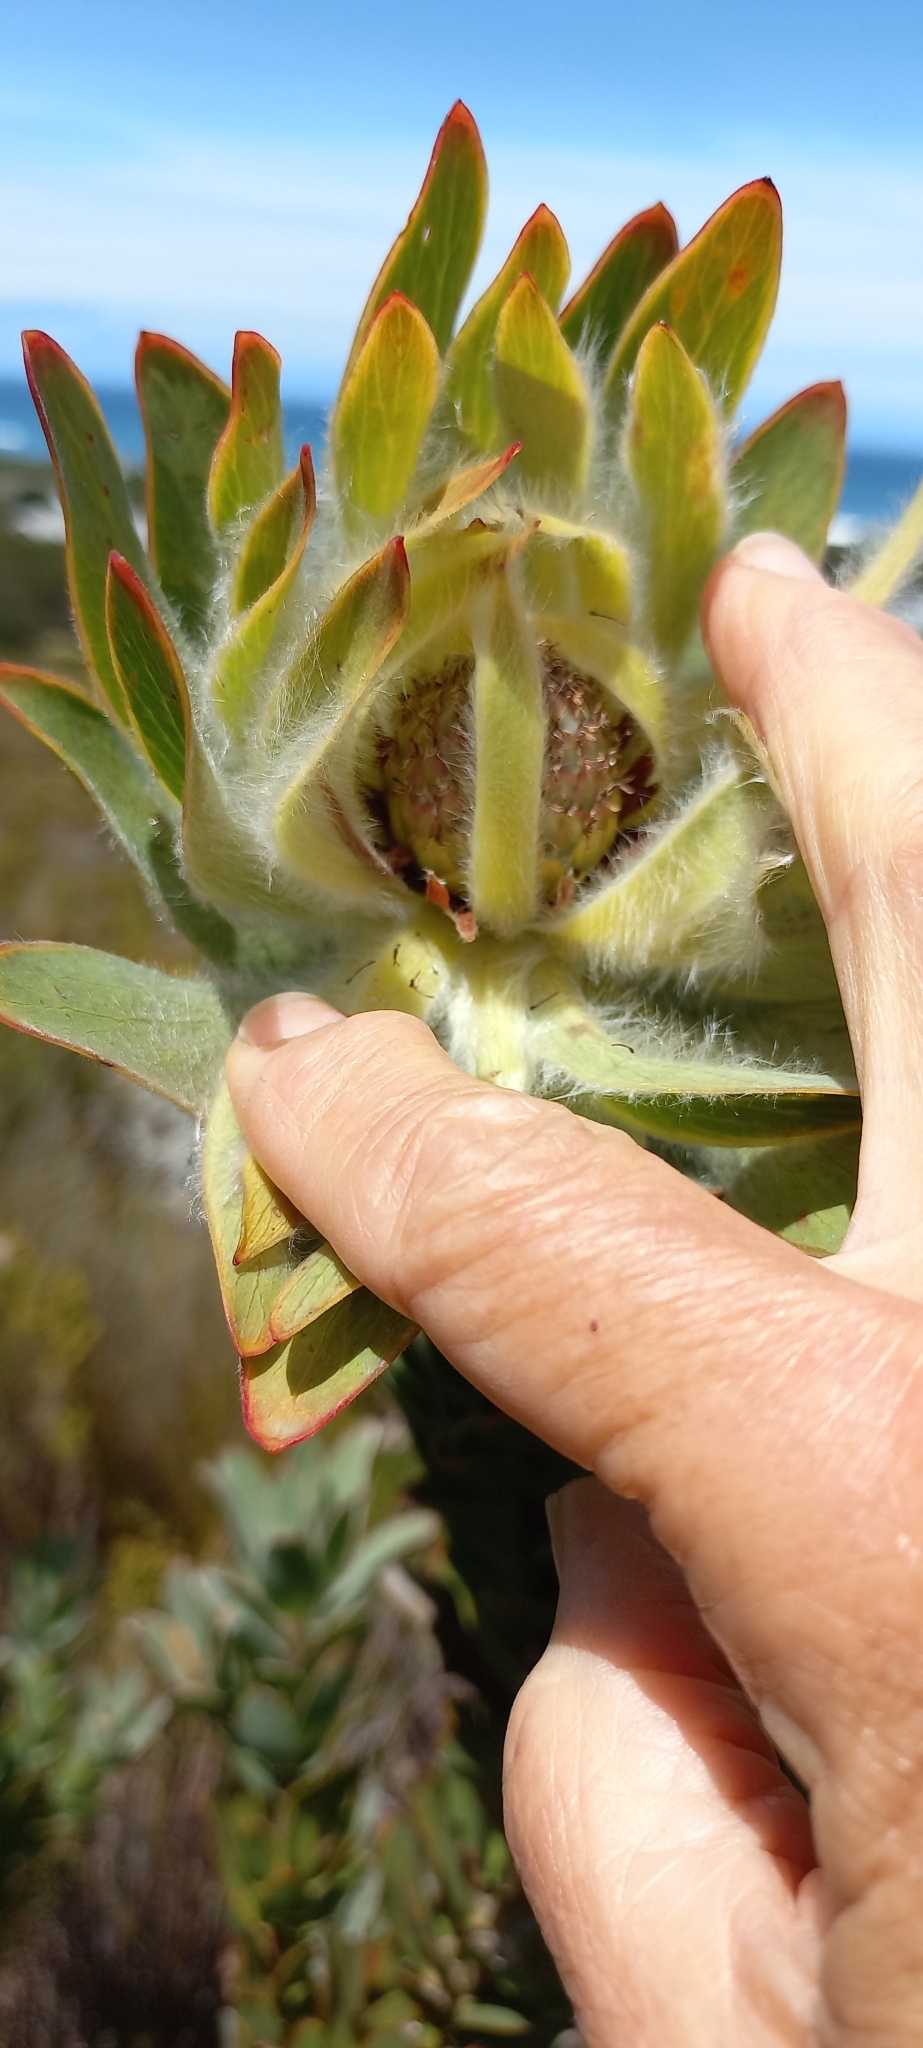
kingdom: Plantae
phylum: Tracheophyta
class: Magnoliopsida
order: Proteales
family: Proteaceae
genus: Leucadendron
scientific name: Leucadendron nervosum
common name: Silky-ruff conebush
